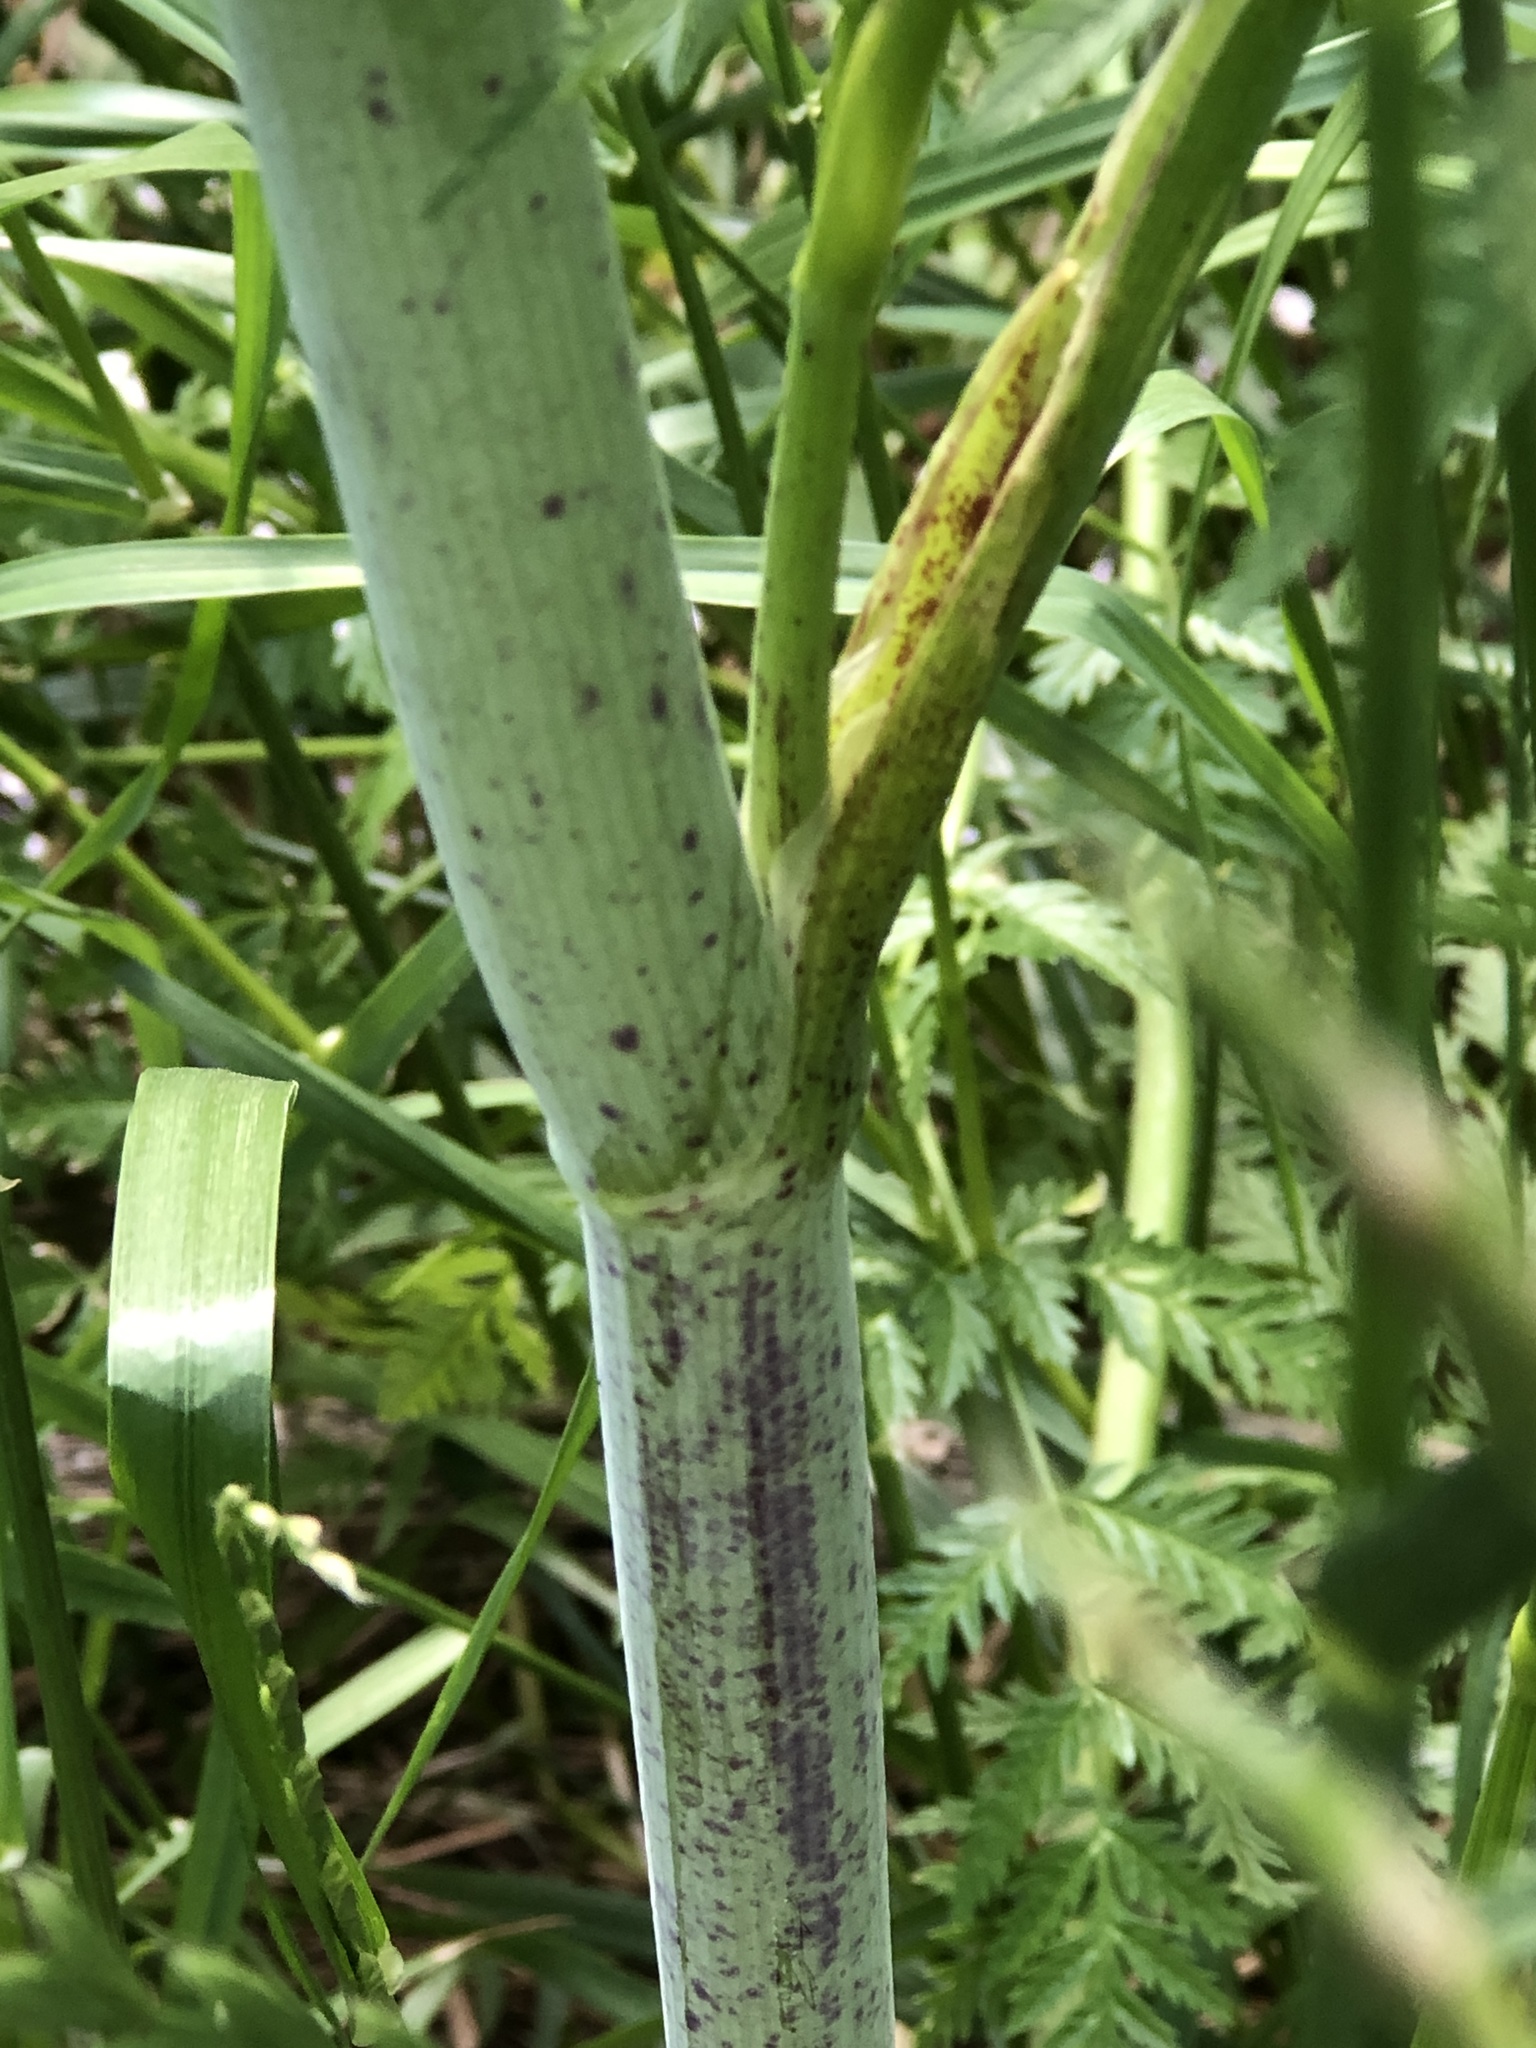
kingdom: Plantae
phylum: Tracheophyta
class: Magnoliopsida
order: Apiales
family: Apiaceae
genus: Conium
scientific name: Conium maculatum
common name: Hemlock
